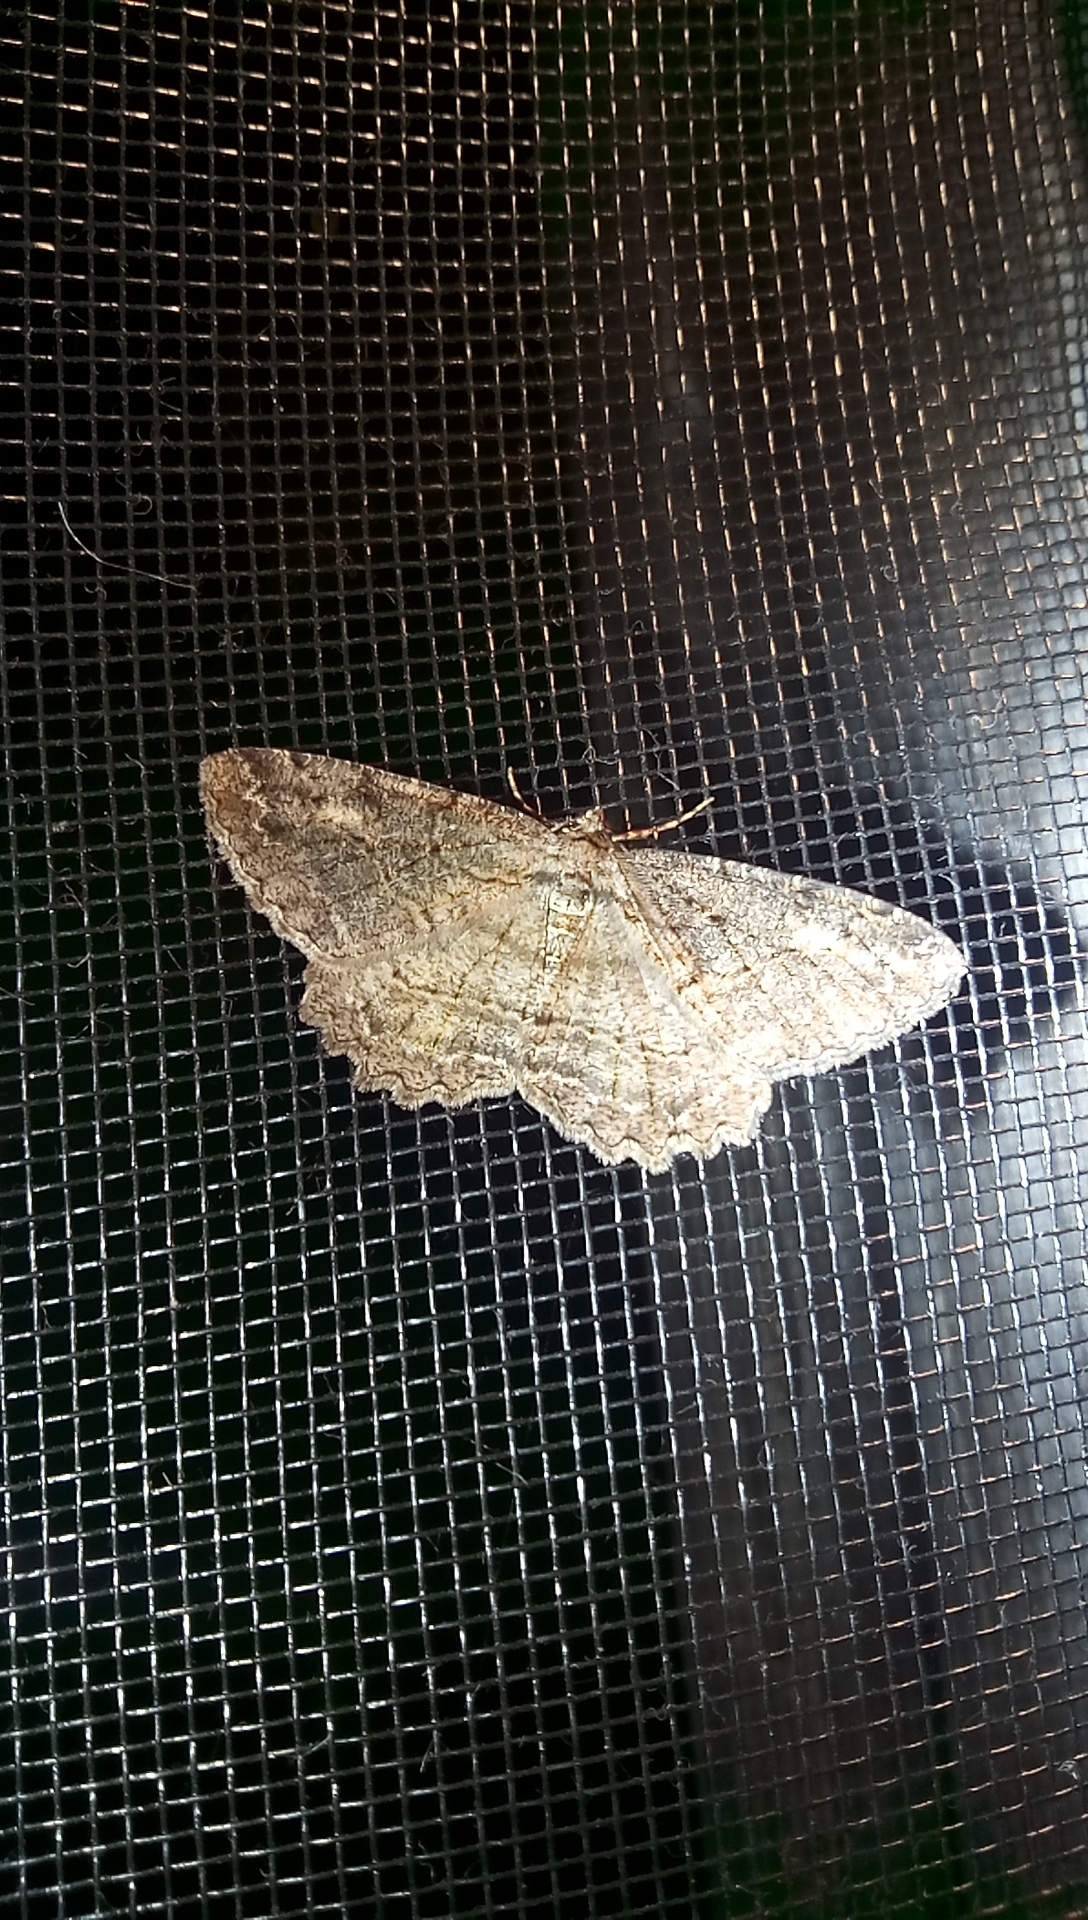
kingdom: Animalia
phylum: Arthropoda
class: Insecta
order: Lepidoptera
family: Geometridae
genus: Neoalcis
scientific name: Neoalcis californiaria
